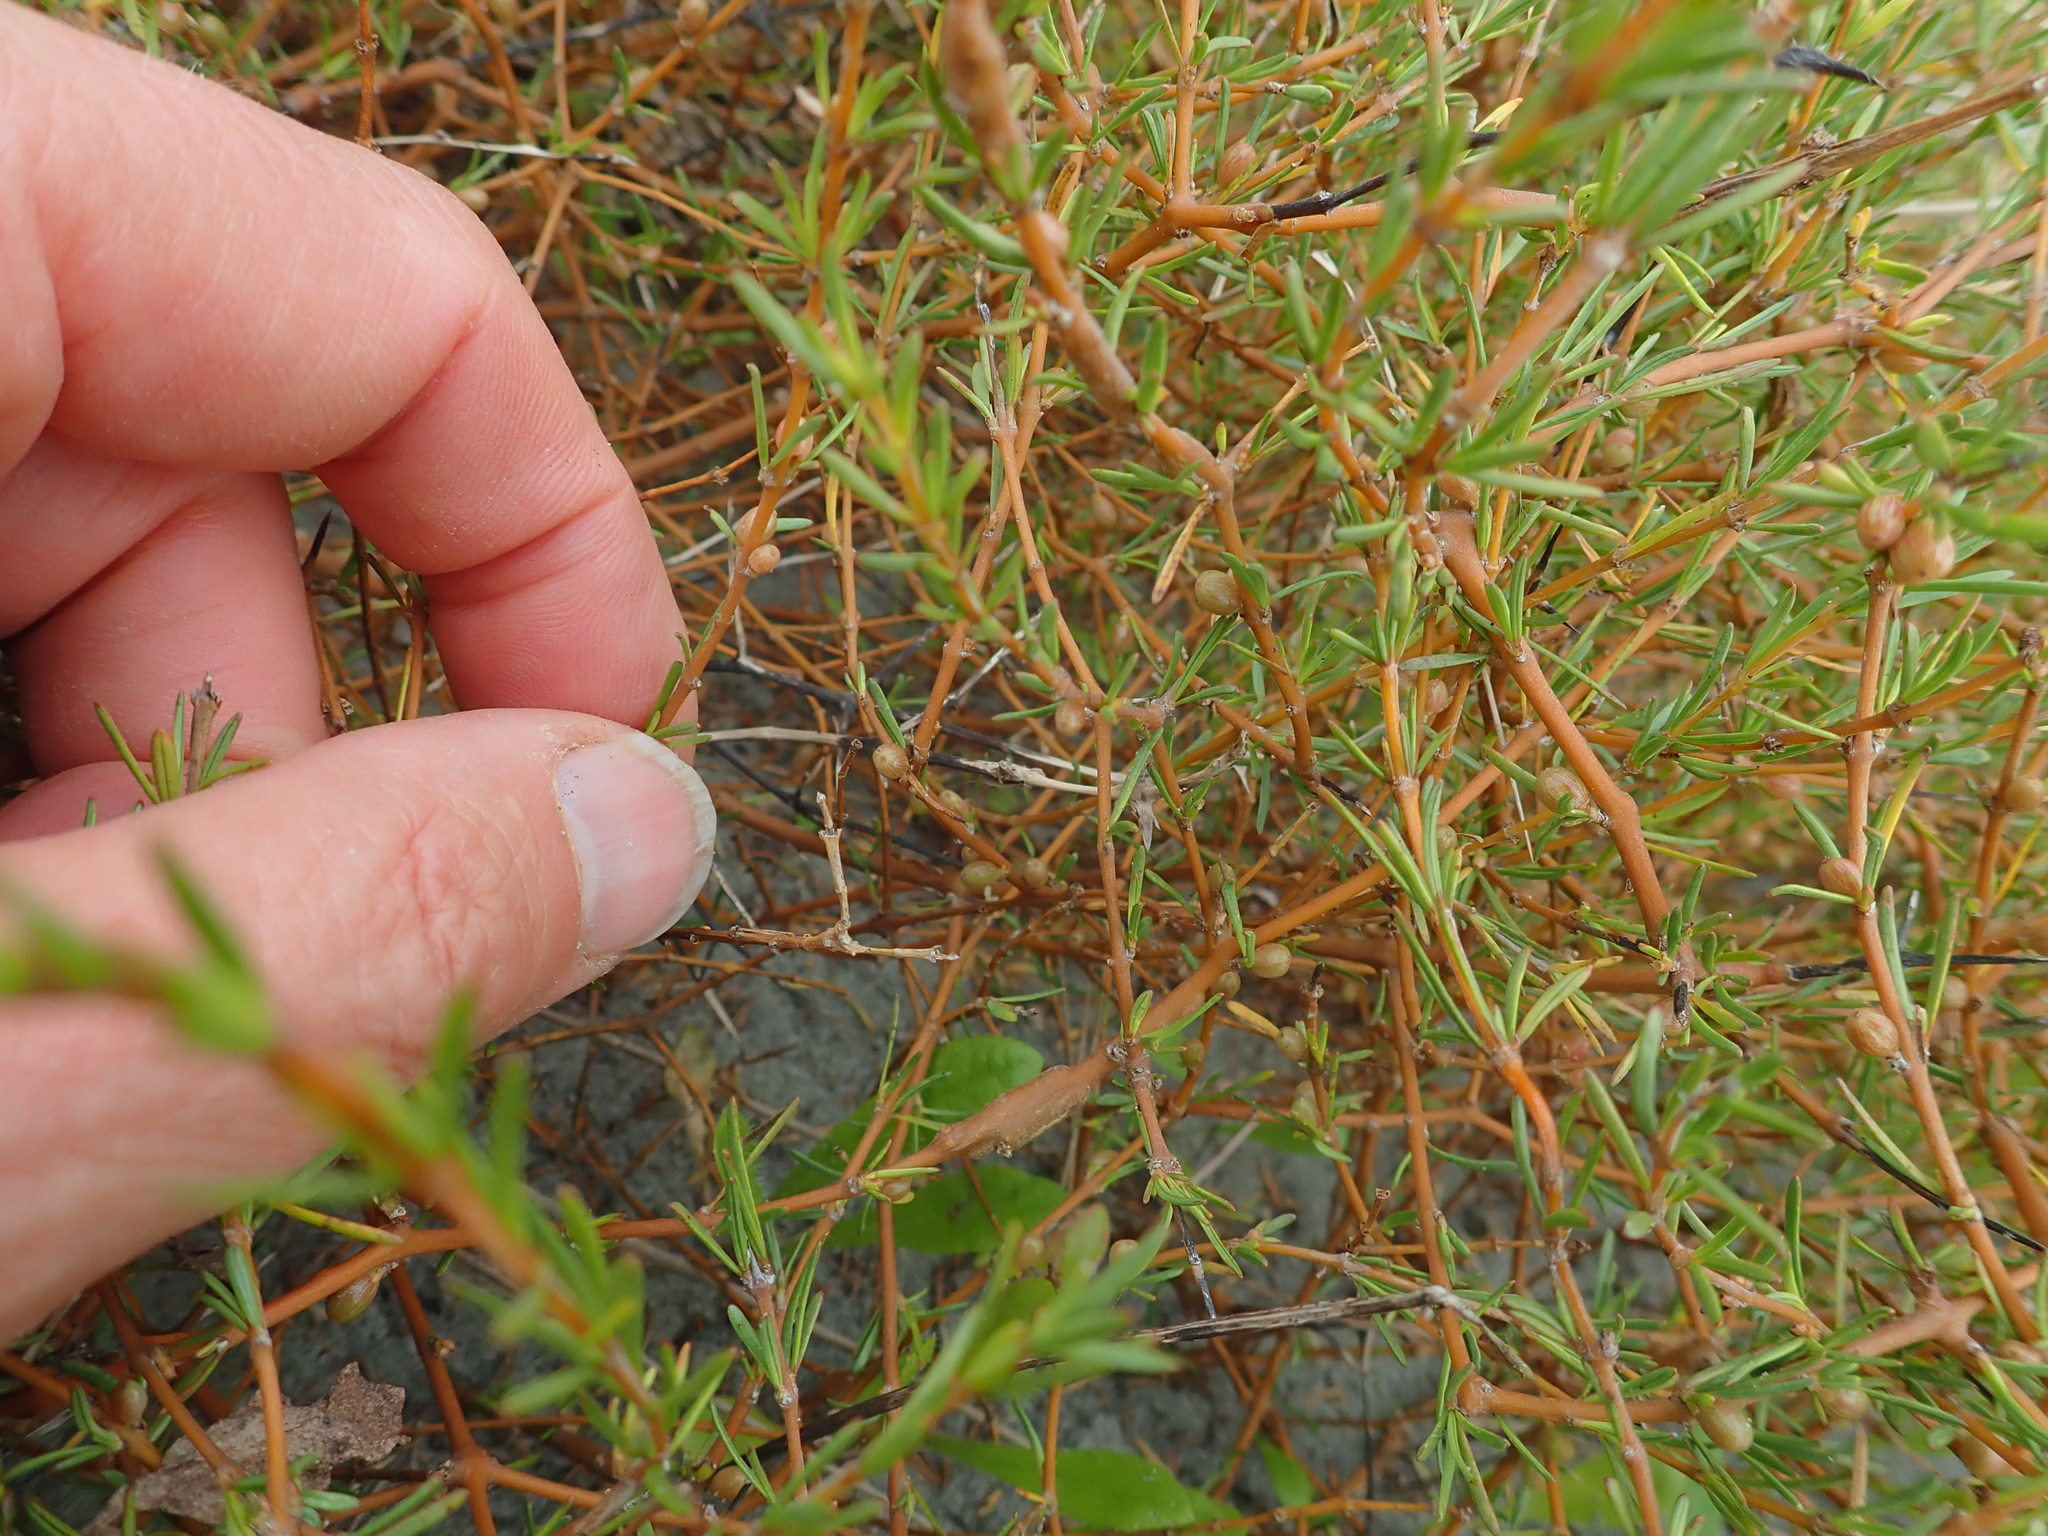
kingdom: Plantae
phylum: Tracheophyta
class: Magnoliopsida
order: Gentianales
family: Rubiaceae
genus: Coprosma
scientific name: Coprosma acerosa
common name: Sand coprosma
